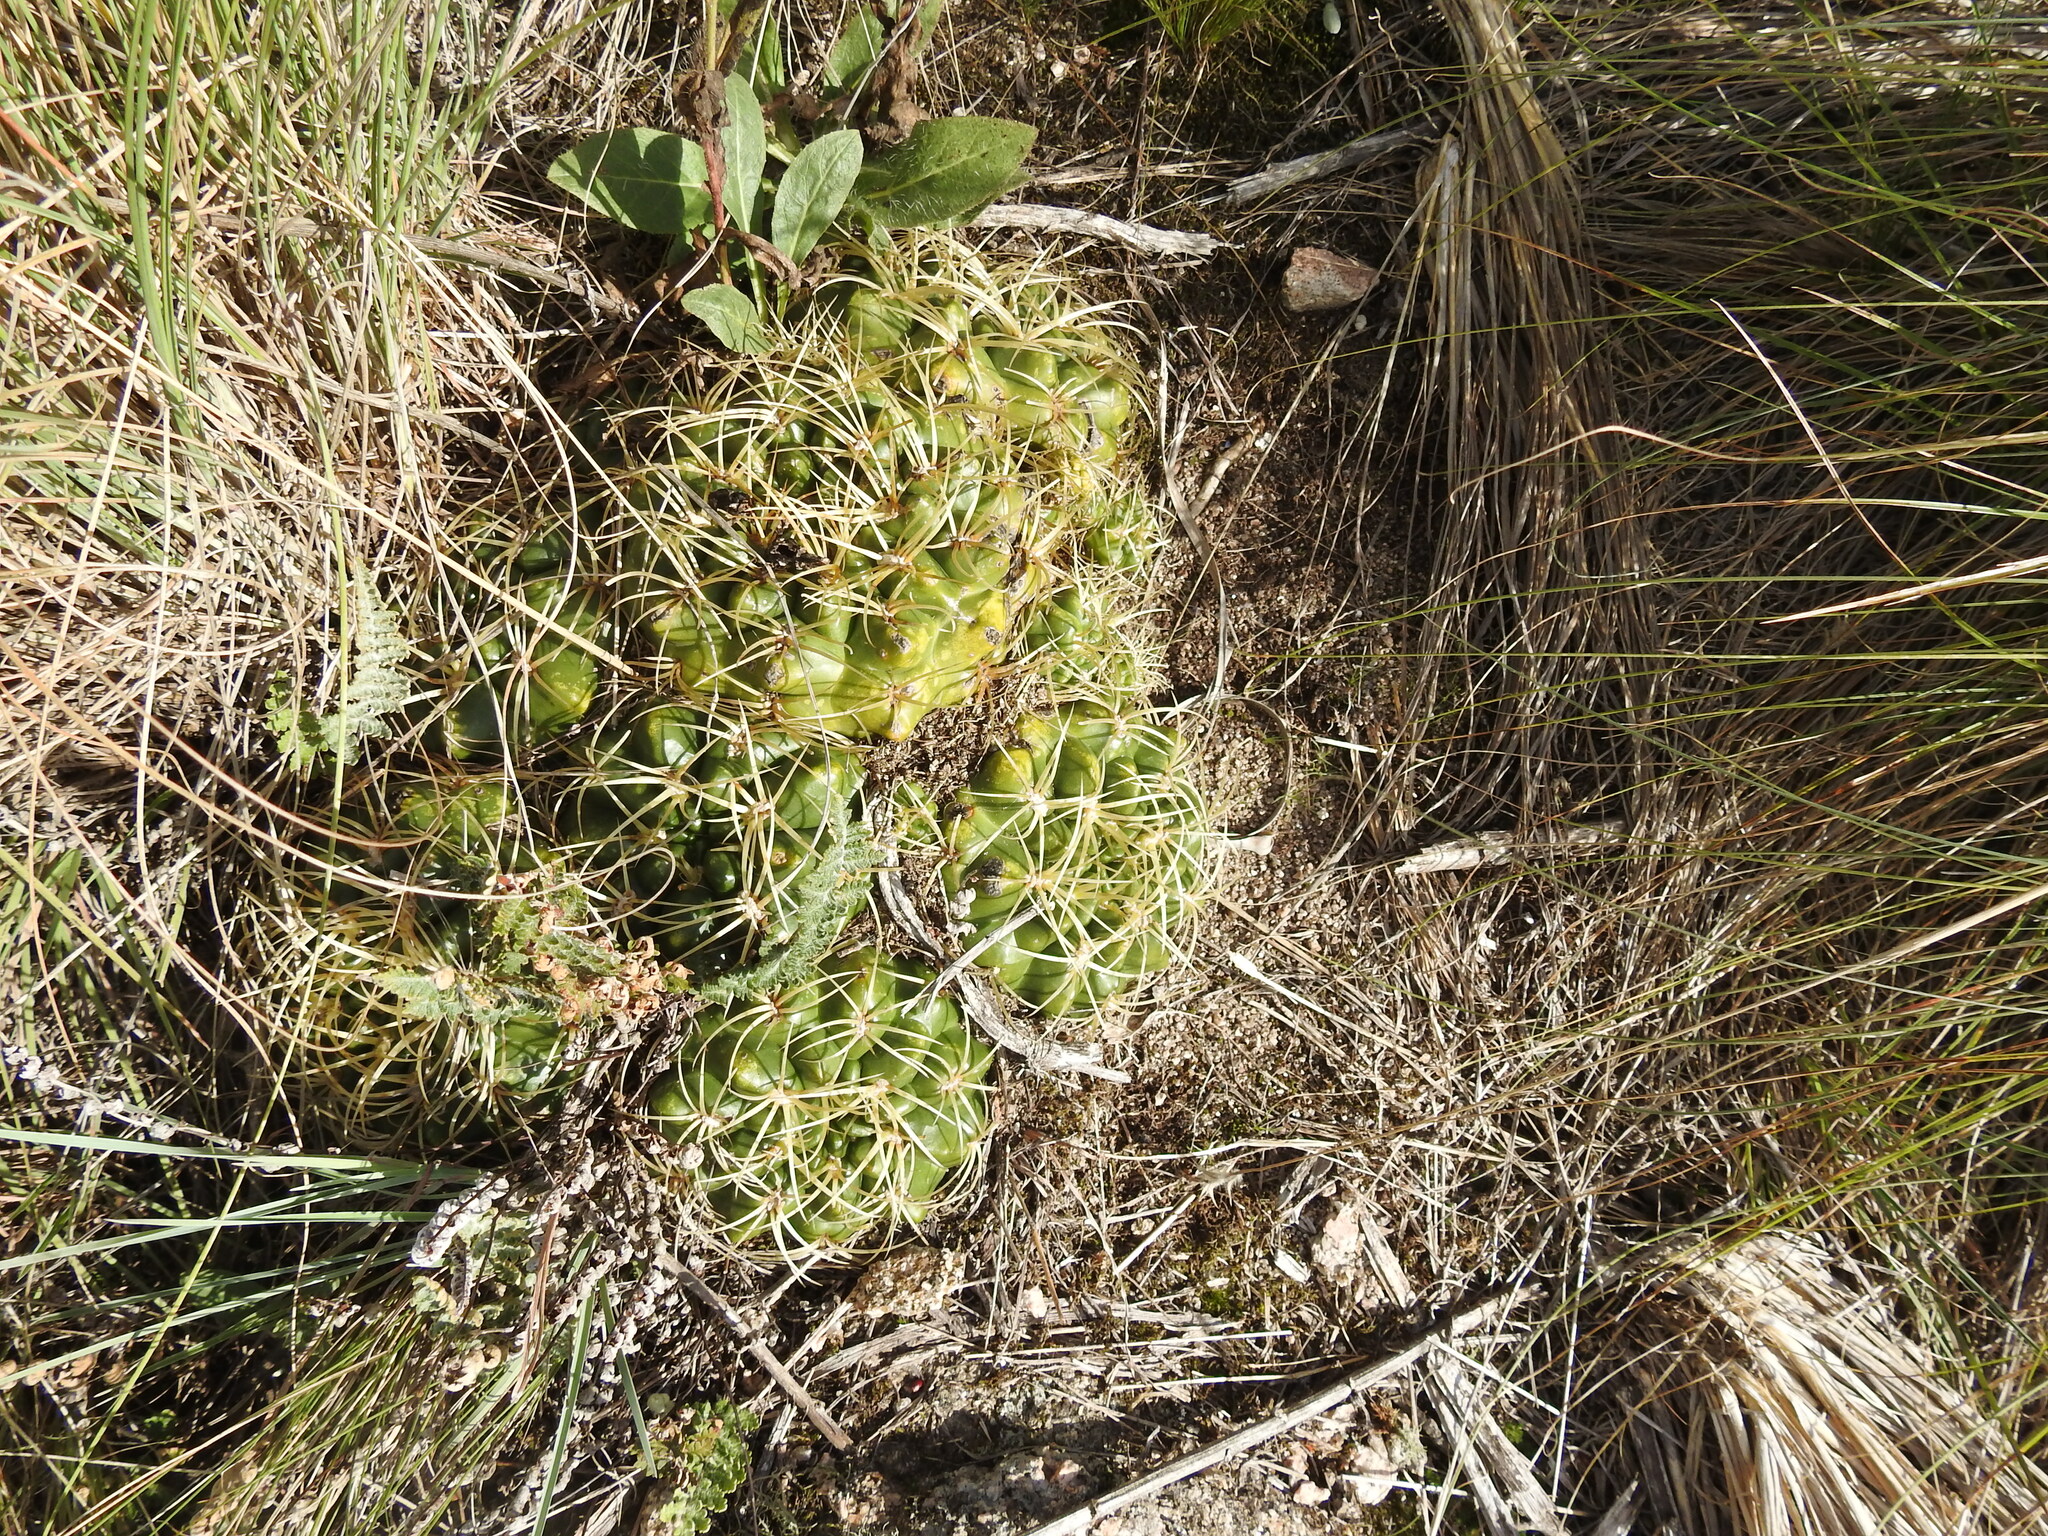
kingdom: Plantae
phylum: Tracheophyta
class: Magnoliopsida
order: Caryophyllales
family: Cactaceae
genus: Gymnocalycium
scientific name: Gymnocalycium monvillei
